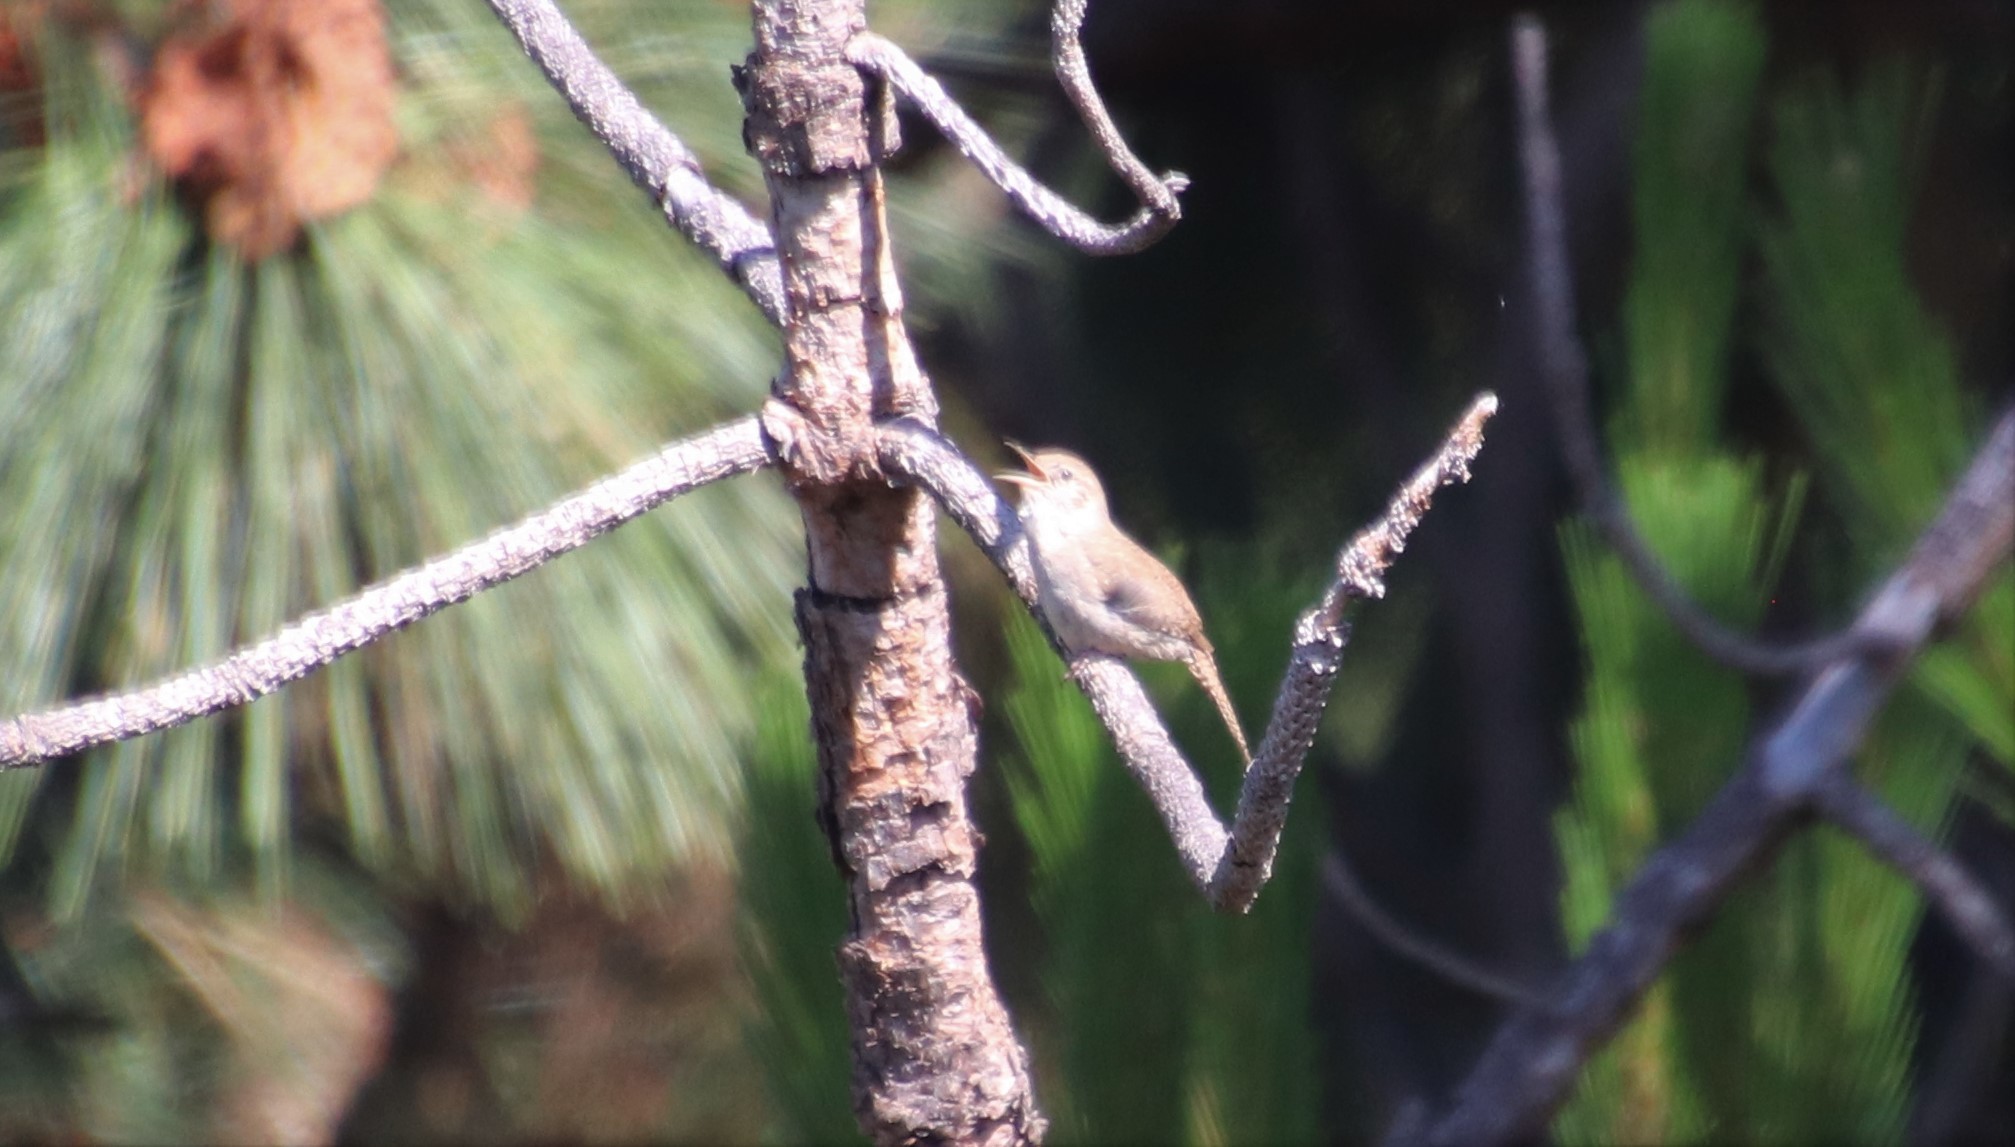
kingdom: Animalia
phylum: Chordata
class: Aves
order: Passeriformes
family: Troglodytidae
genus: Troglodytes
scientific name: Troglodytes aedon
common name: House wren
